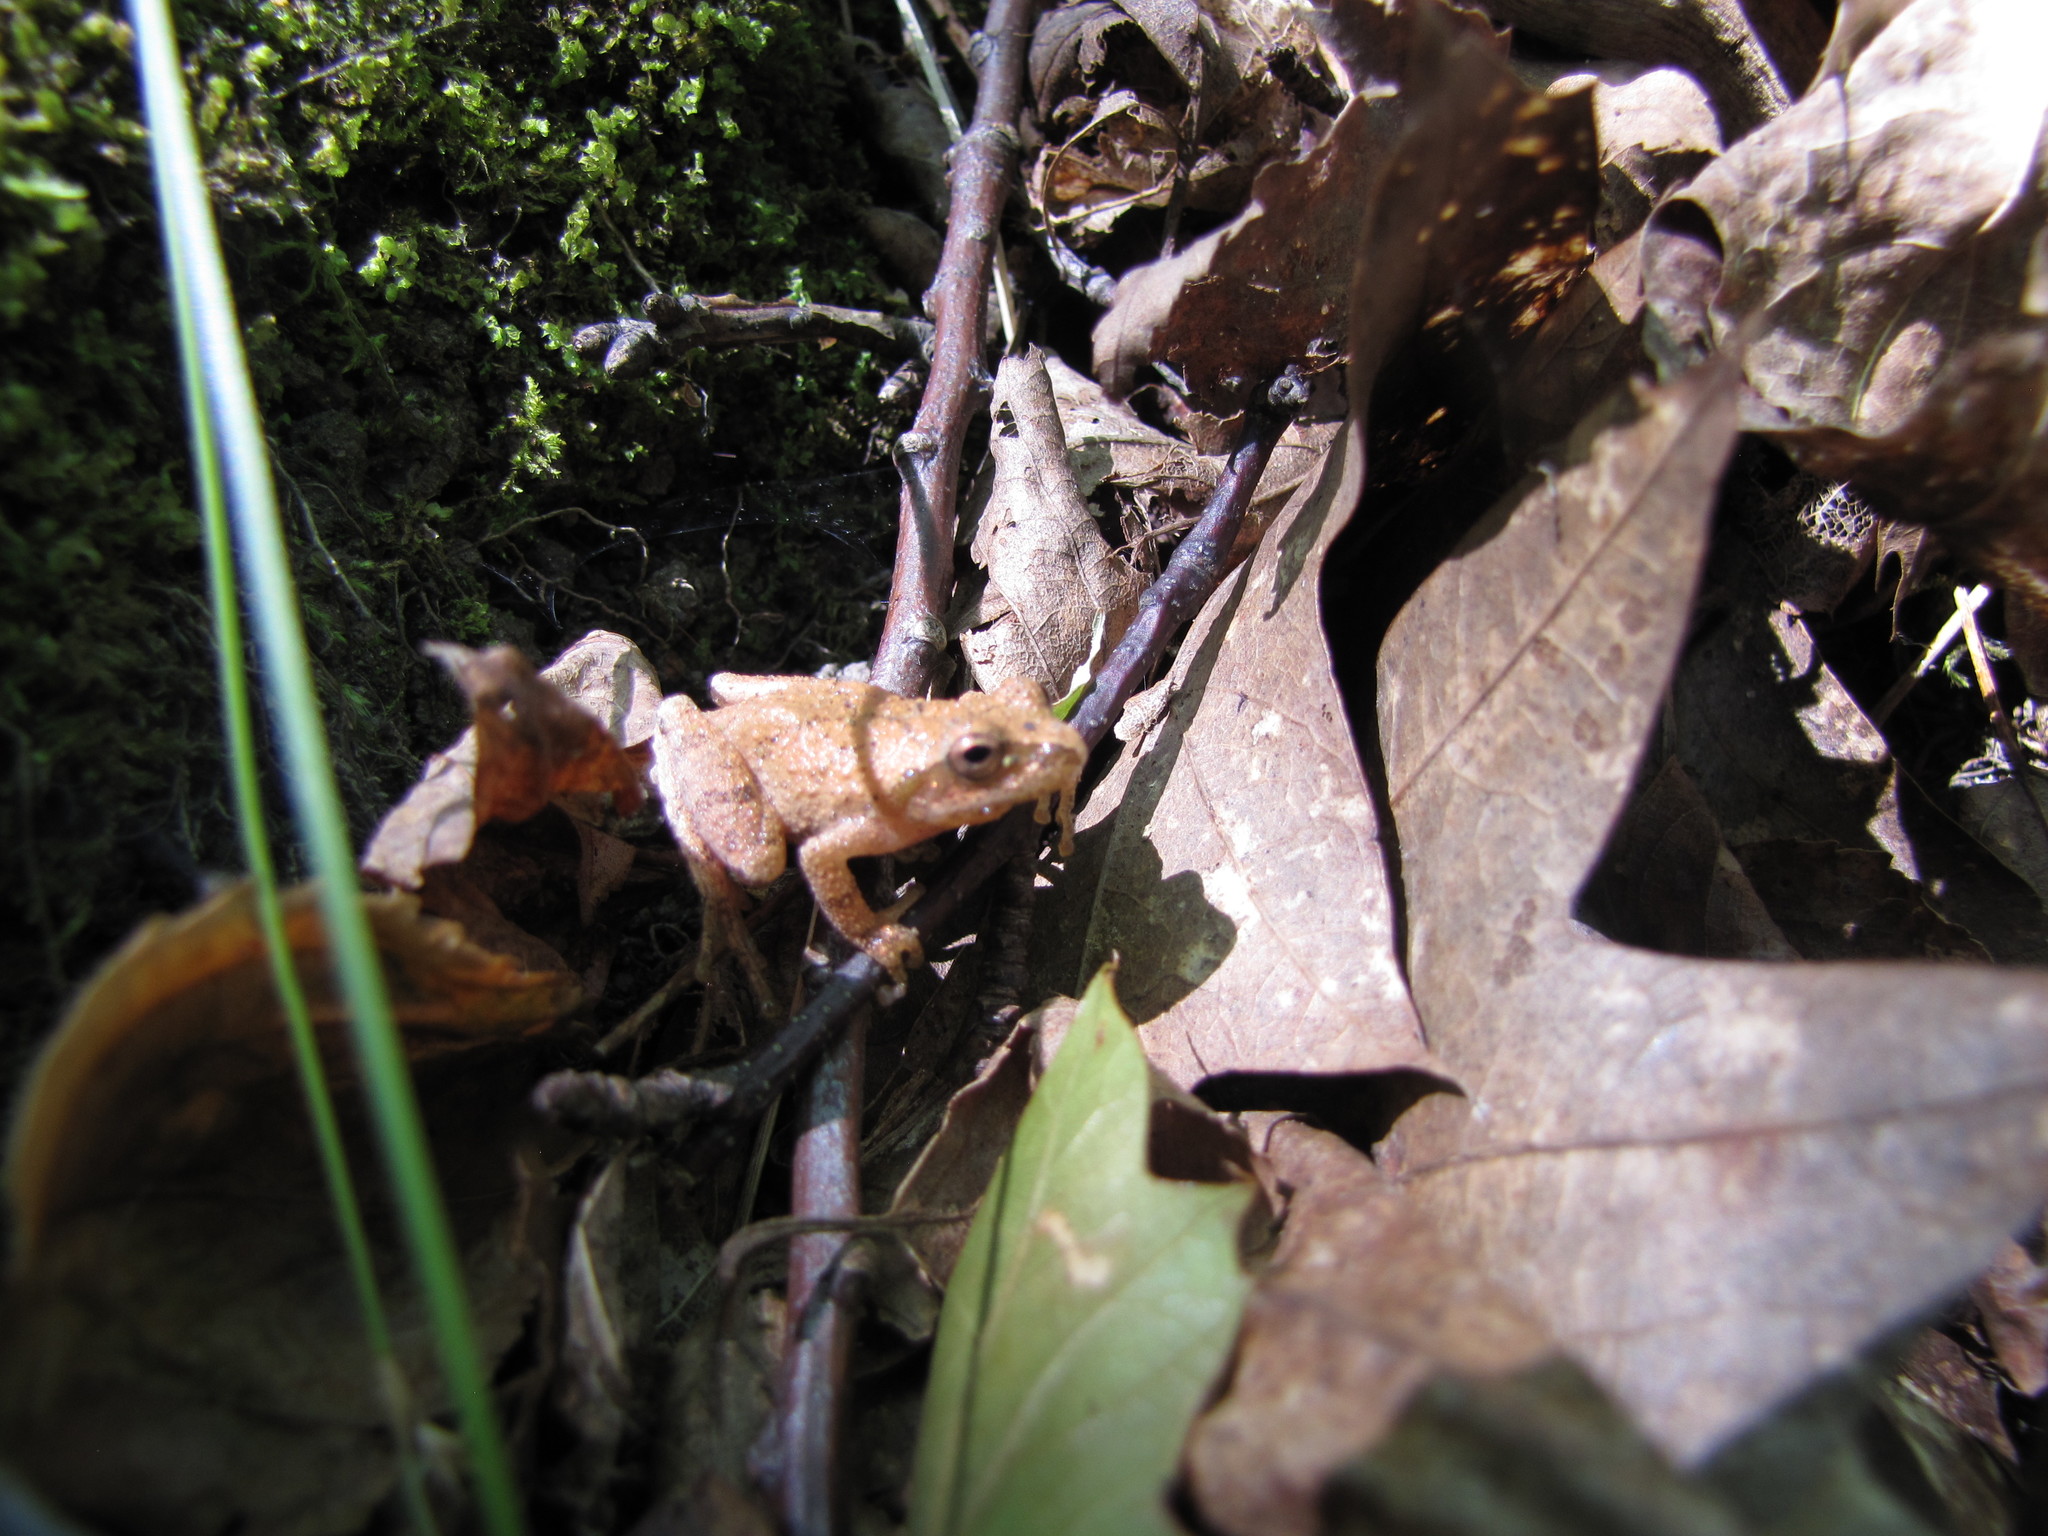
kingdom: Animalia
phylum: Chordata
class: Amphibia
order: Anura
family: Hylidae
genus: Pseudacris
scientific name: Pseudacris crucifer
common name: Spring peeper
